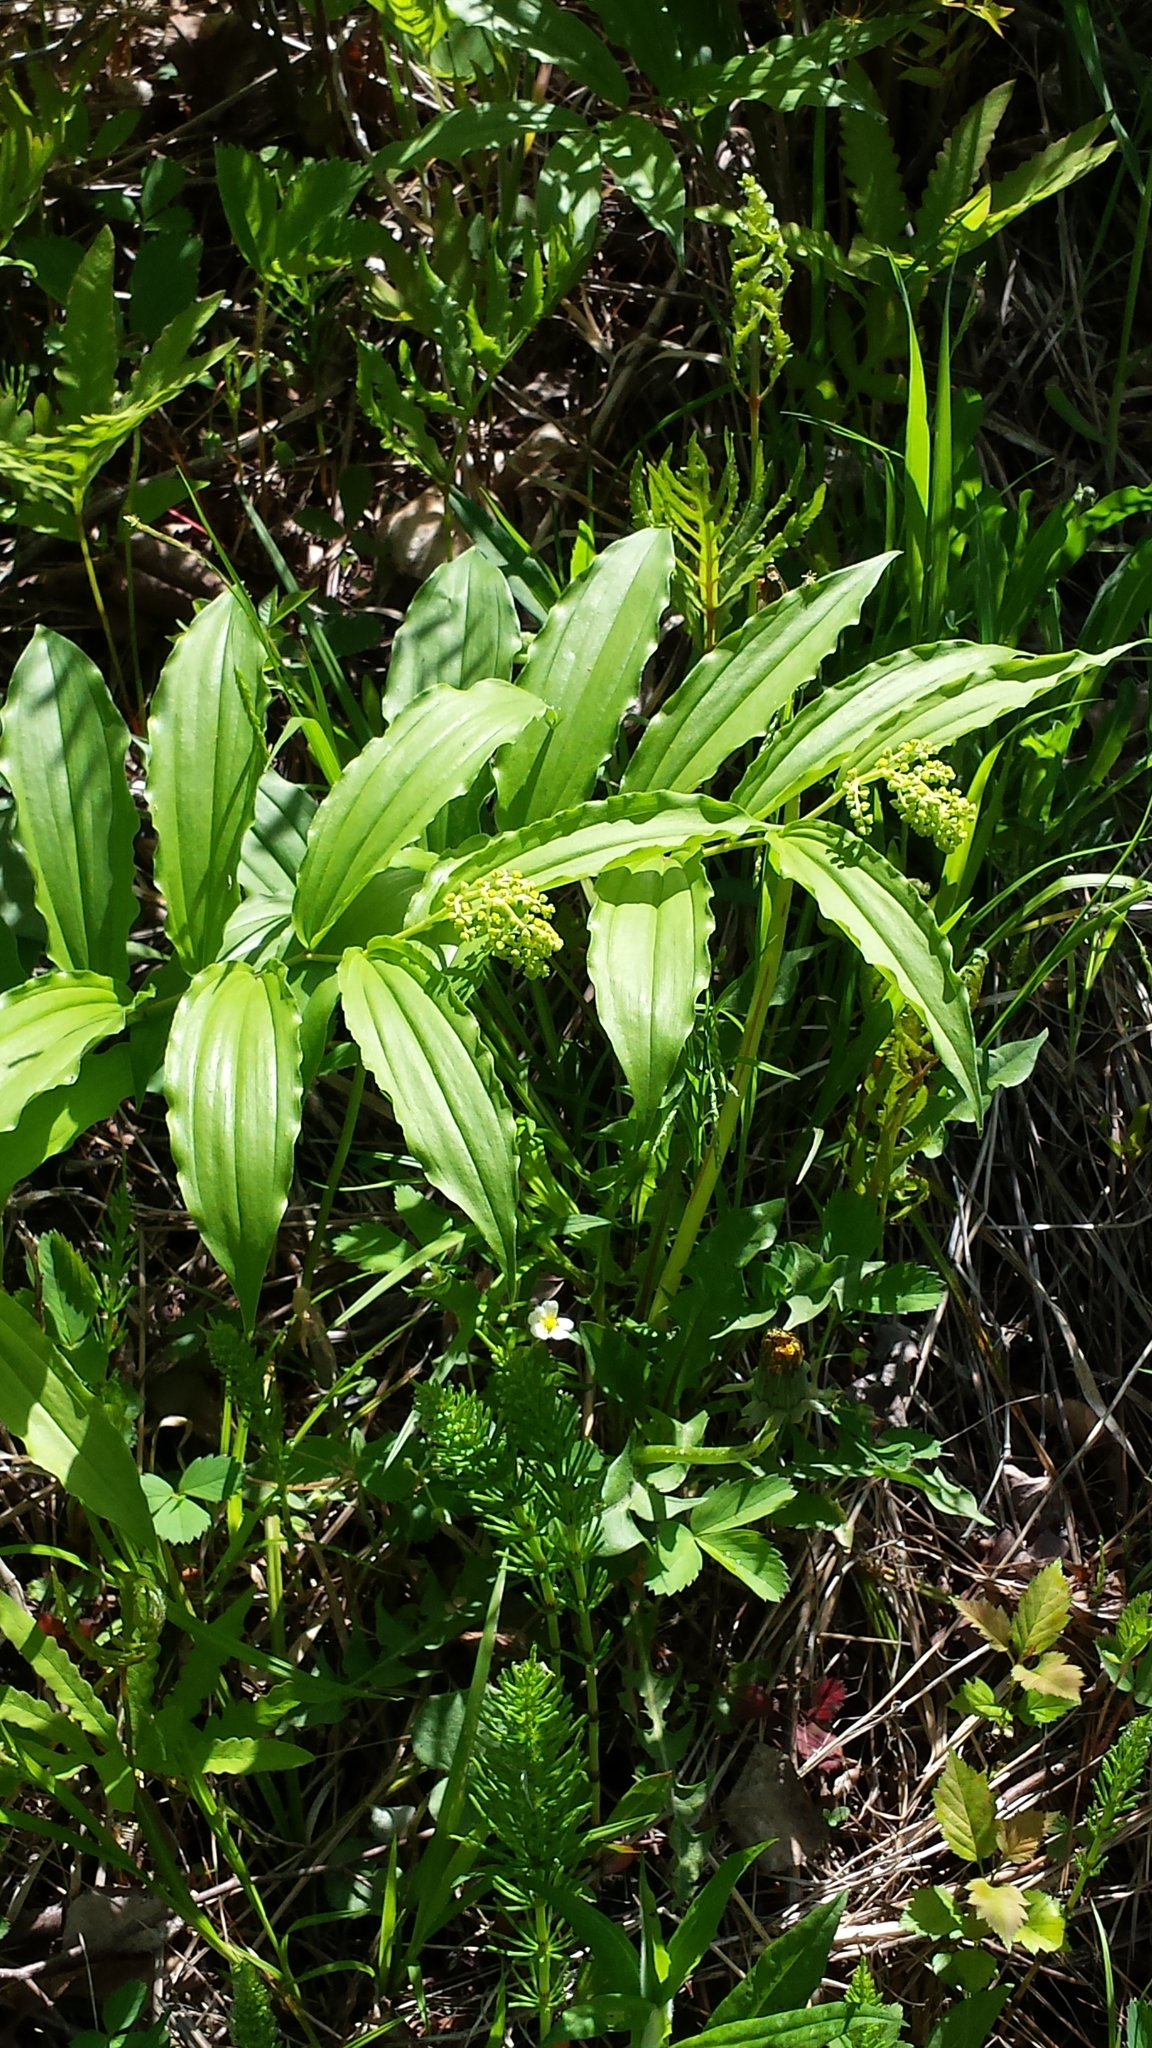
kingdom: Plantae
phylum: Tracheophyta
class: Liliopsida
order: Asparagales
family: Asparagaceae
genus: Maianthemum
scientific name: Maianthemum racemosum
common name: False spikenard
